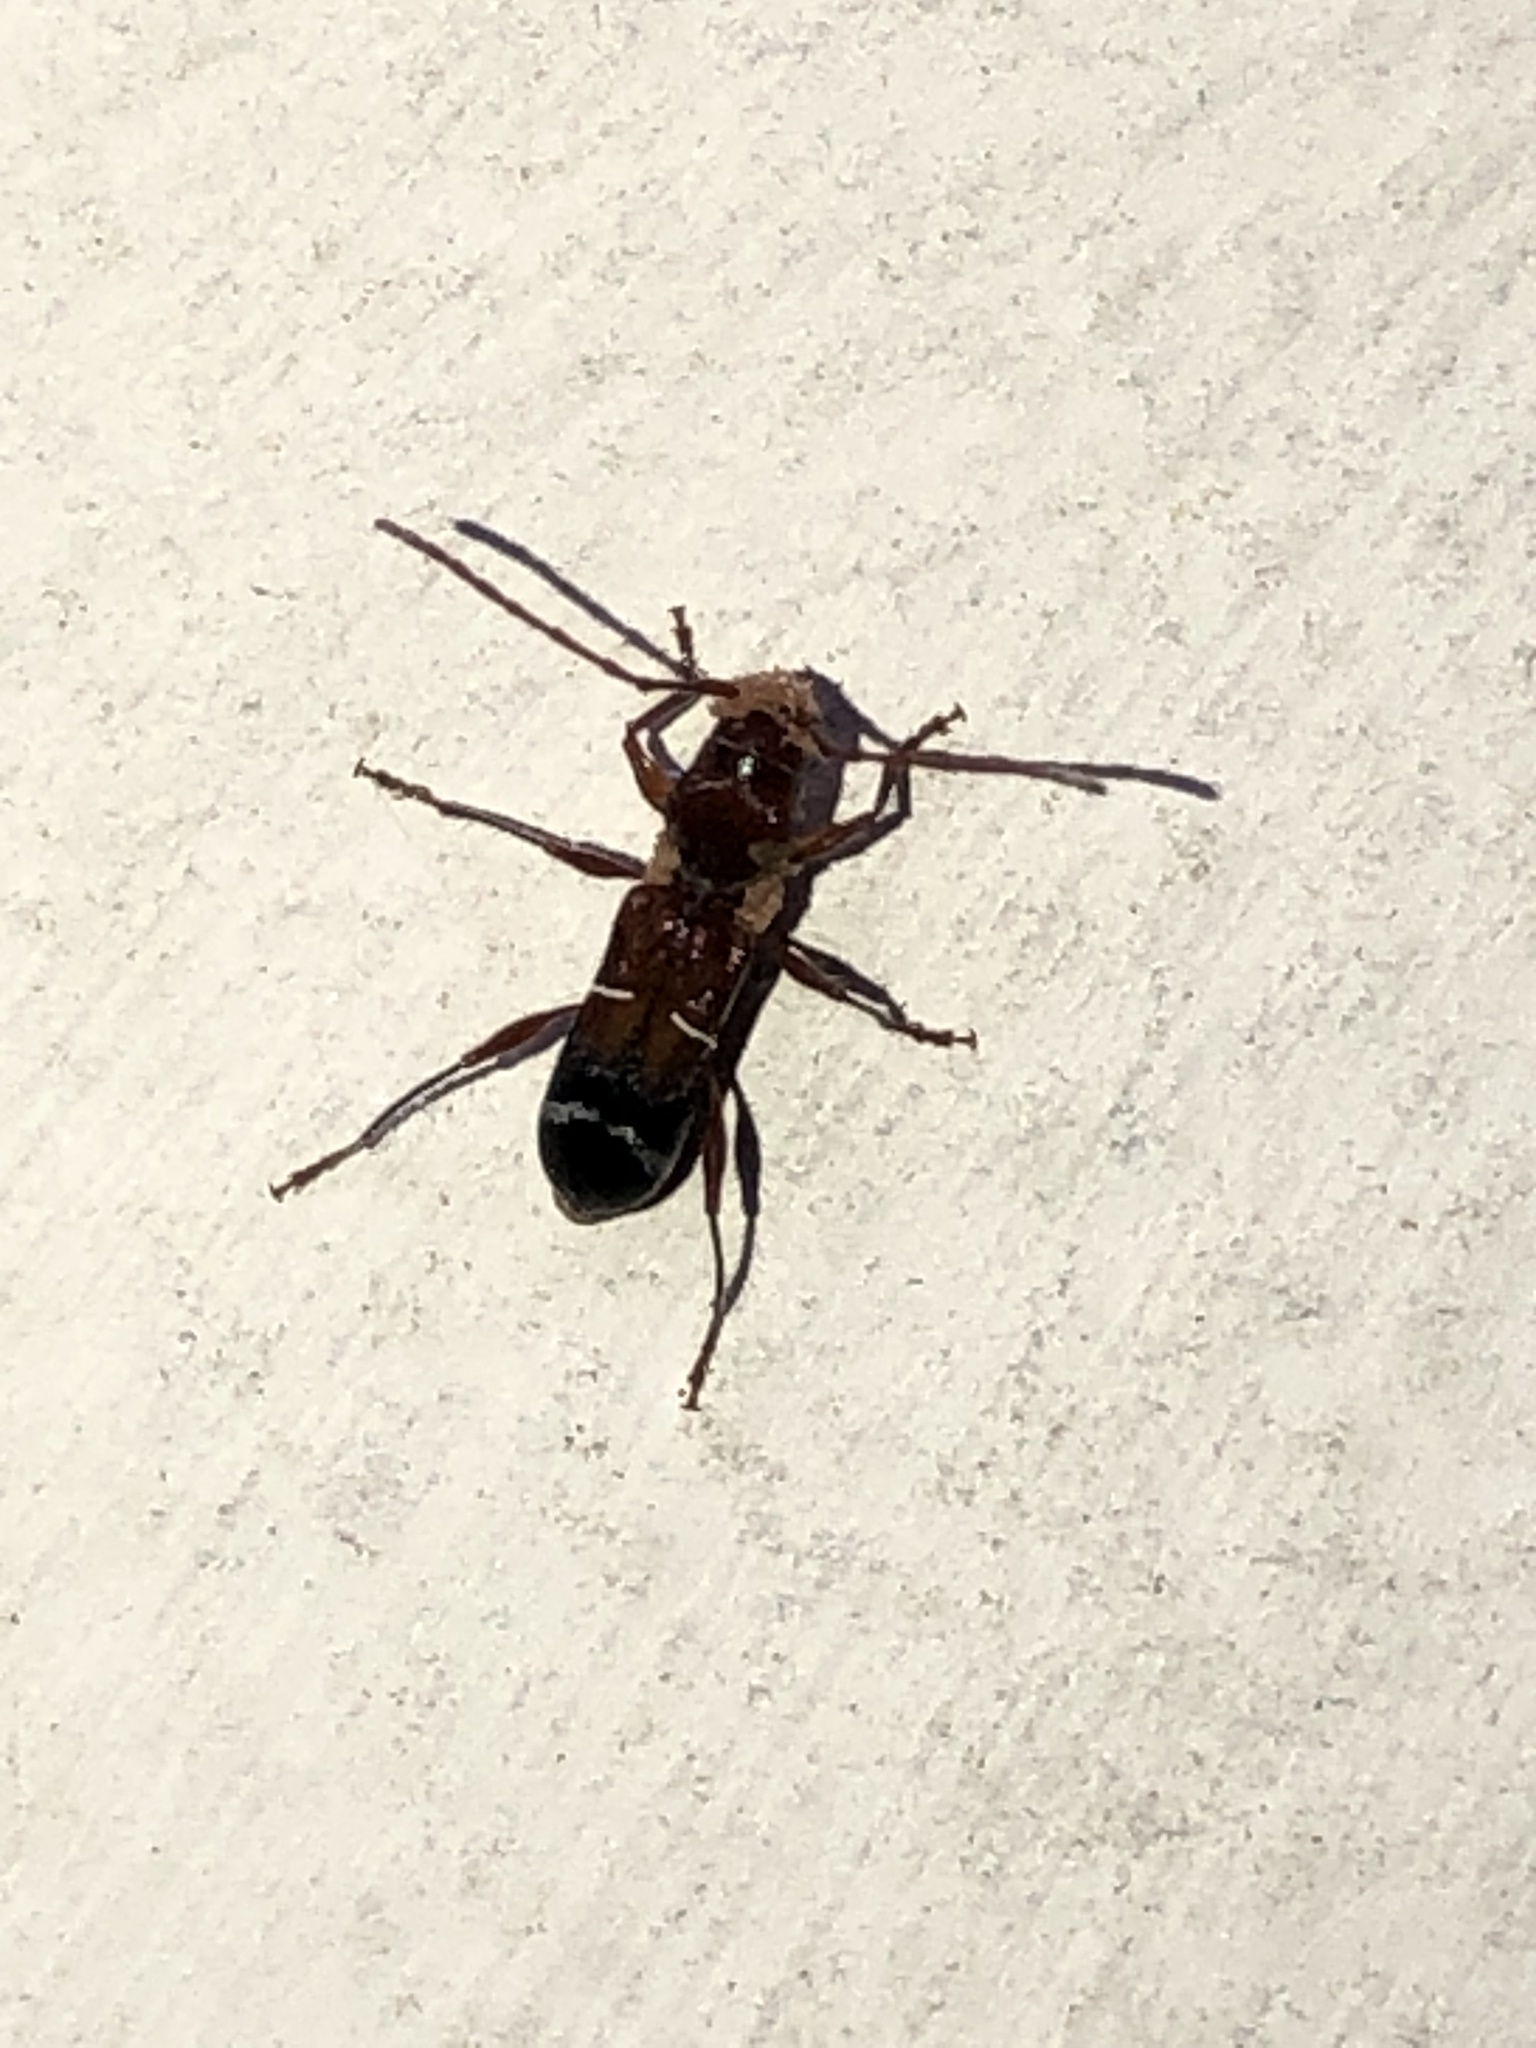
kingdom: Animalia
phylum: Arthropoda
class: Insecta
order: Coleoptera
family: Cerambycidae
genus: Euderces
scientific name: Euderces pini
